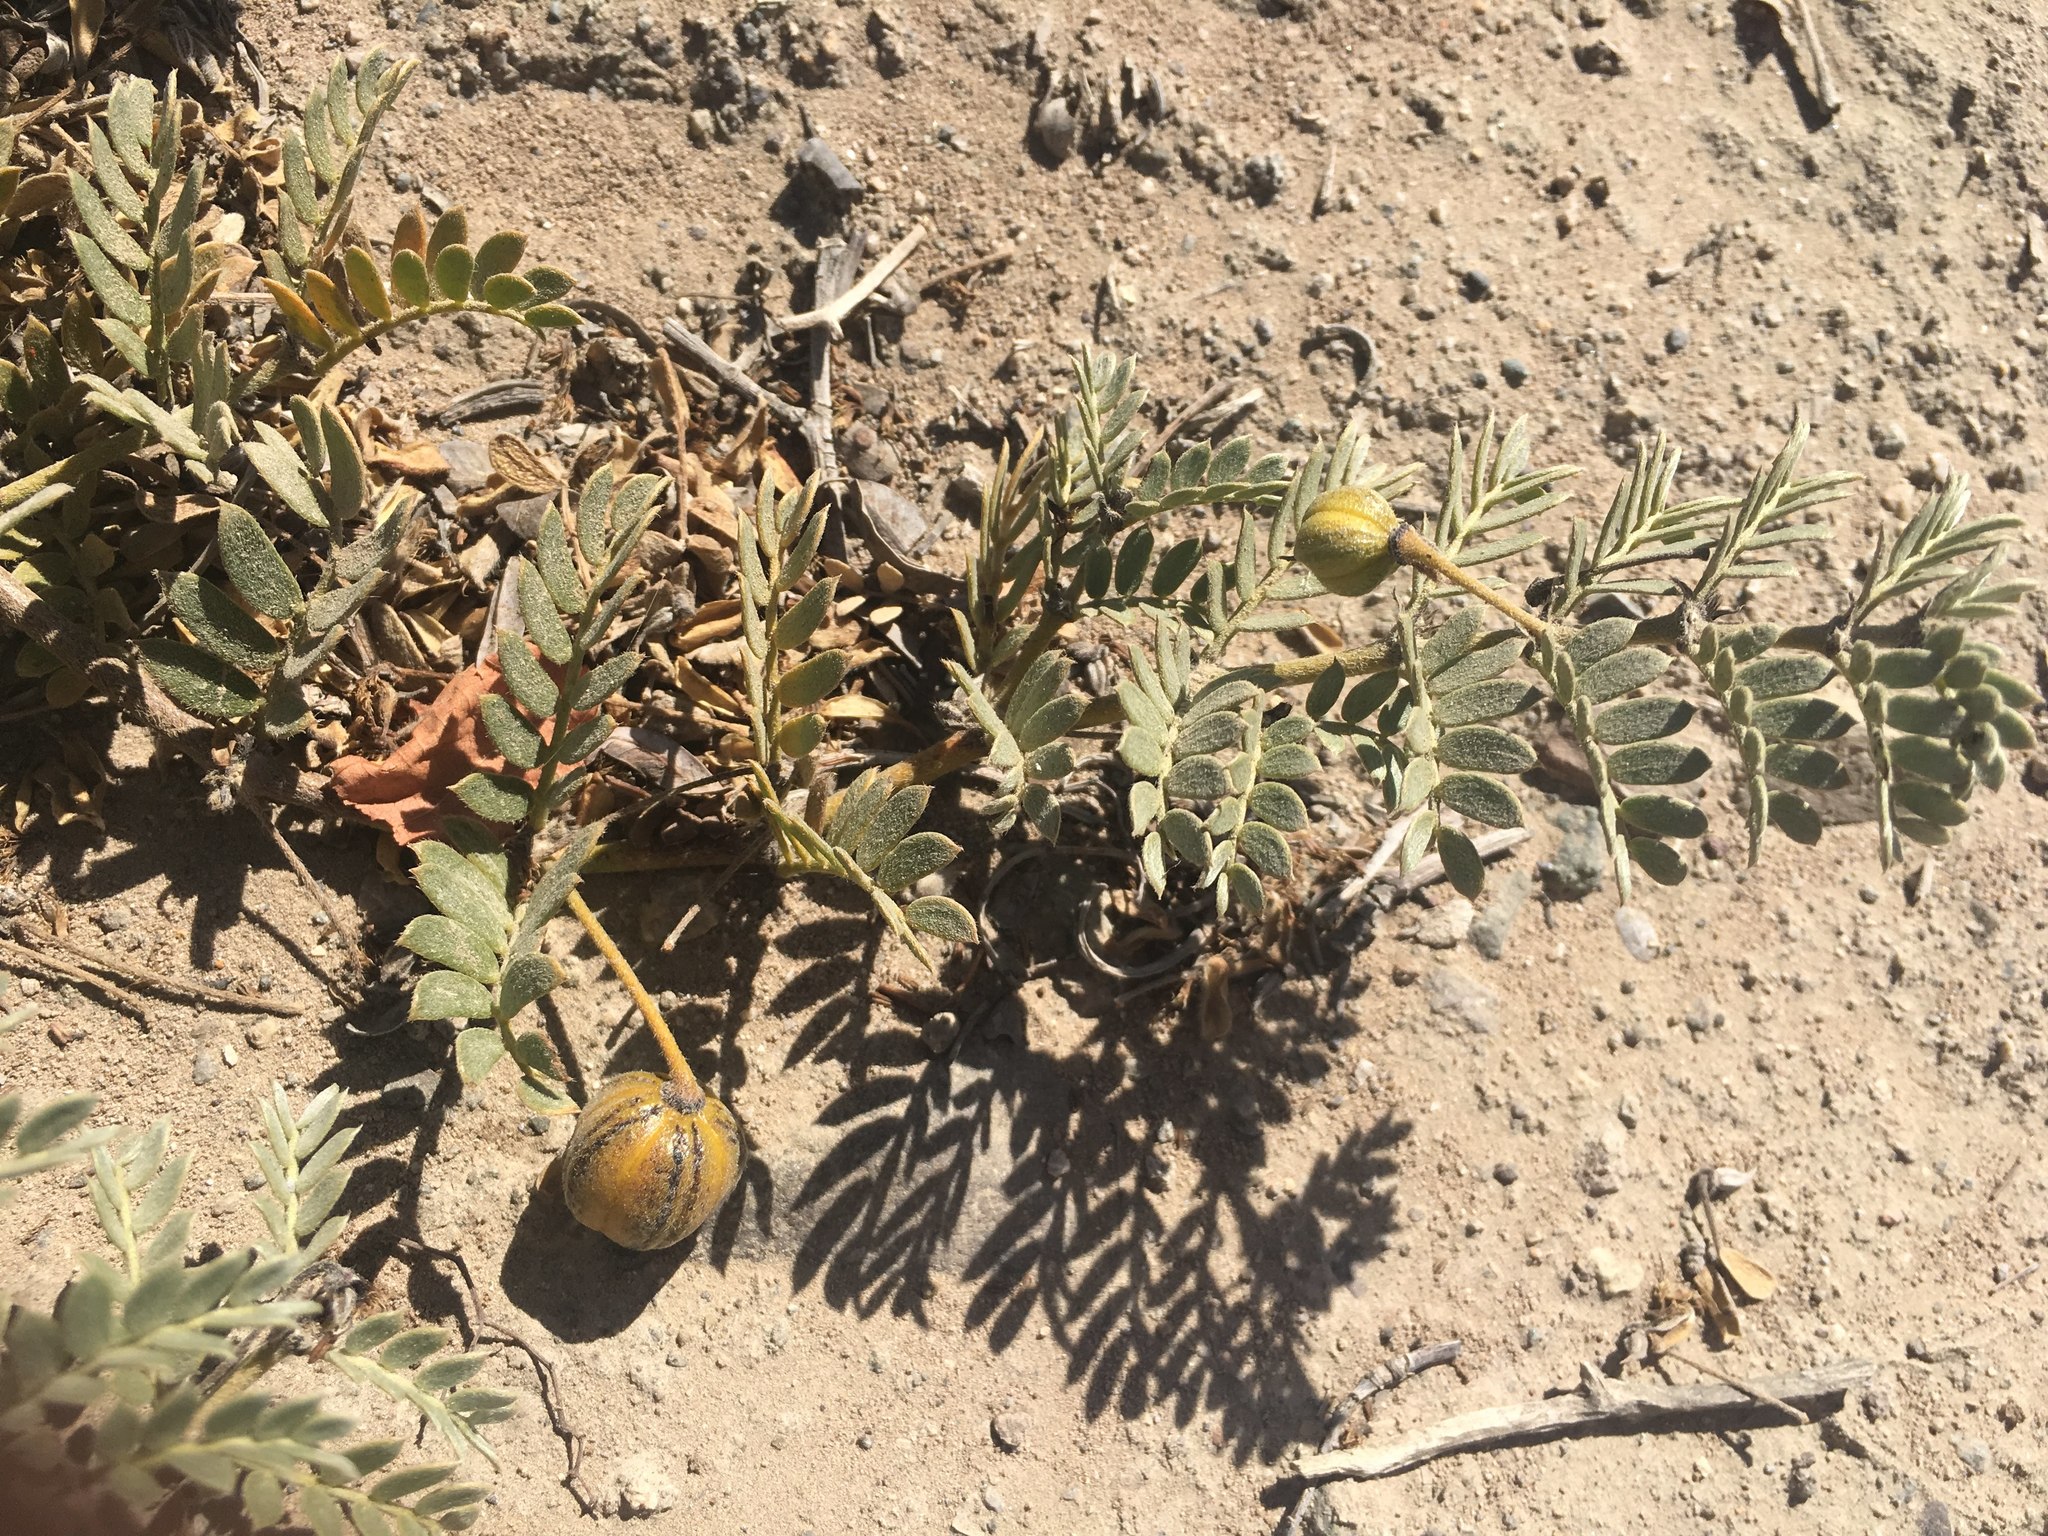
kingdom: Plantae
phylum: Tracheophyta
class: Magnoliopsida
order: Zygophyllales
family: Zygophyllaceae
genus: Pintoa
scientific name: Pintoa chilensis
